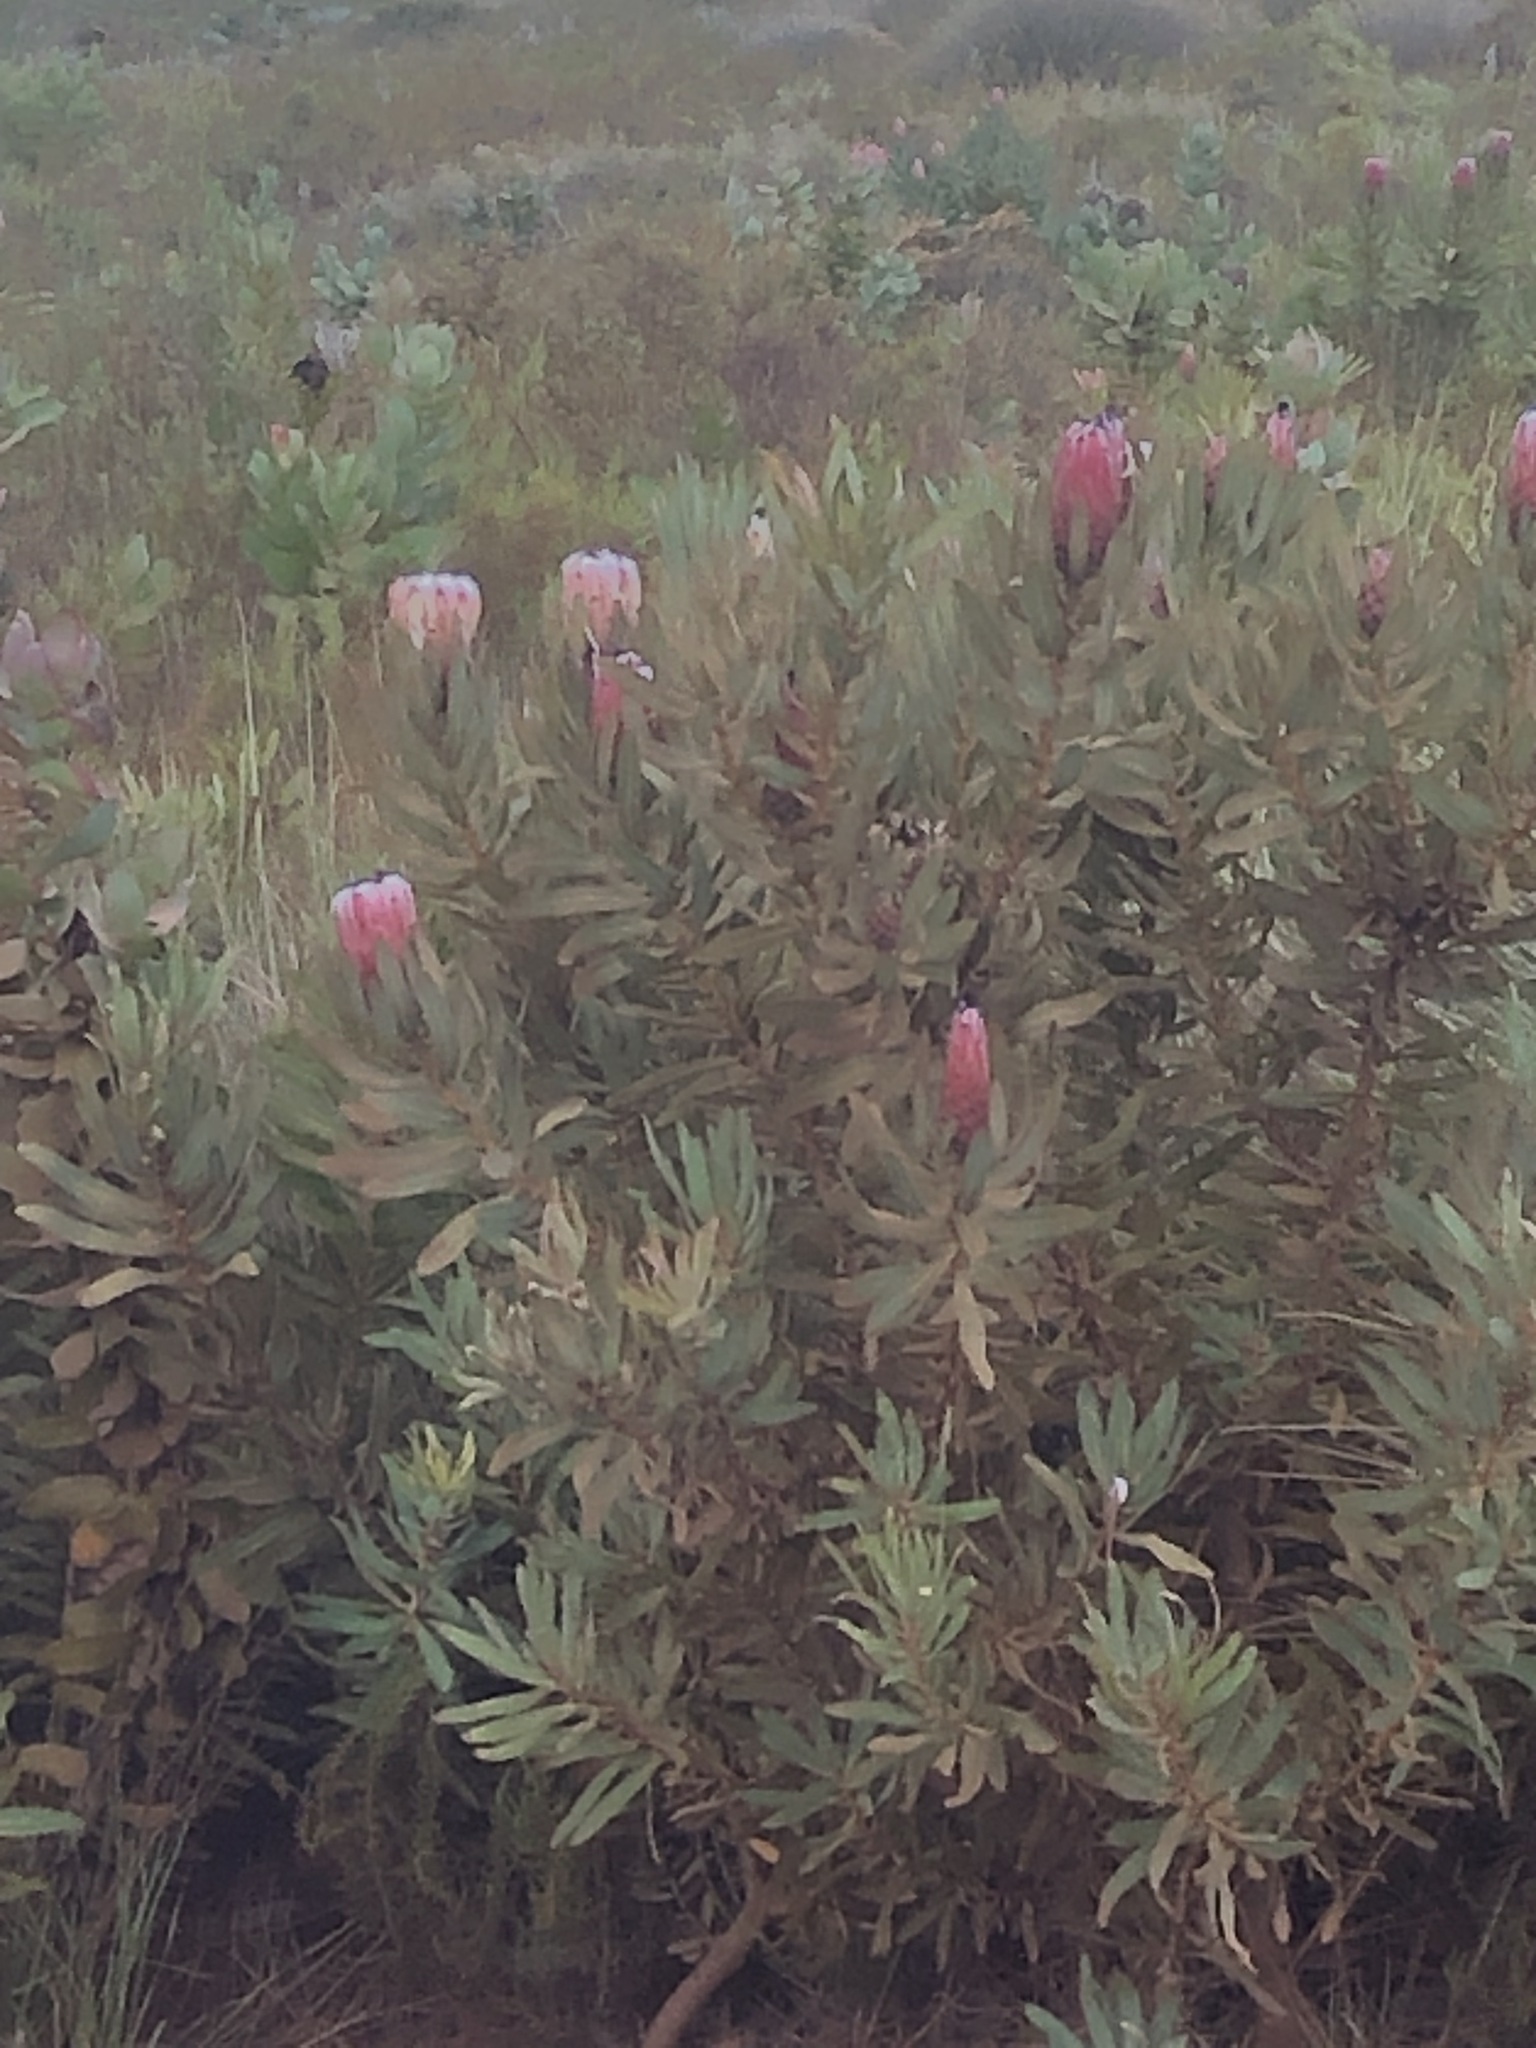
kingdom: Plantae
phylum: Tracheophyta
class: Magnoliopsida
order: Proteales
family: Proteaceae
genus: Protea
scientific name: Protea neriifolia
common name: Blue sugarbush
